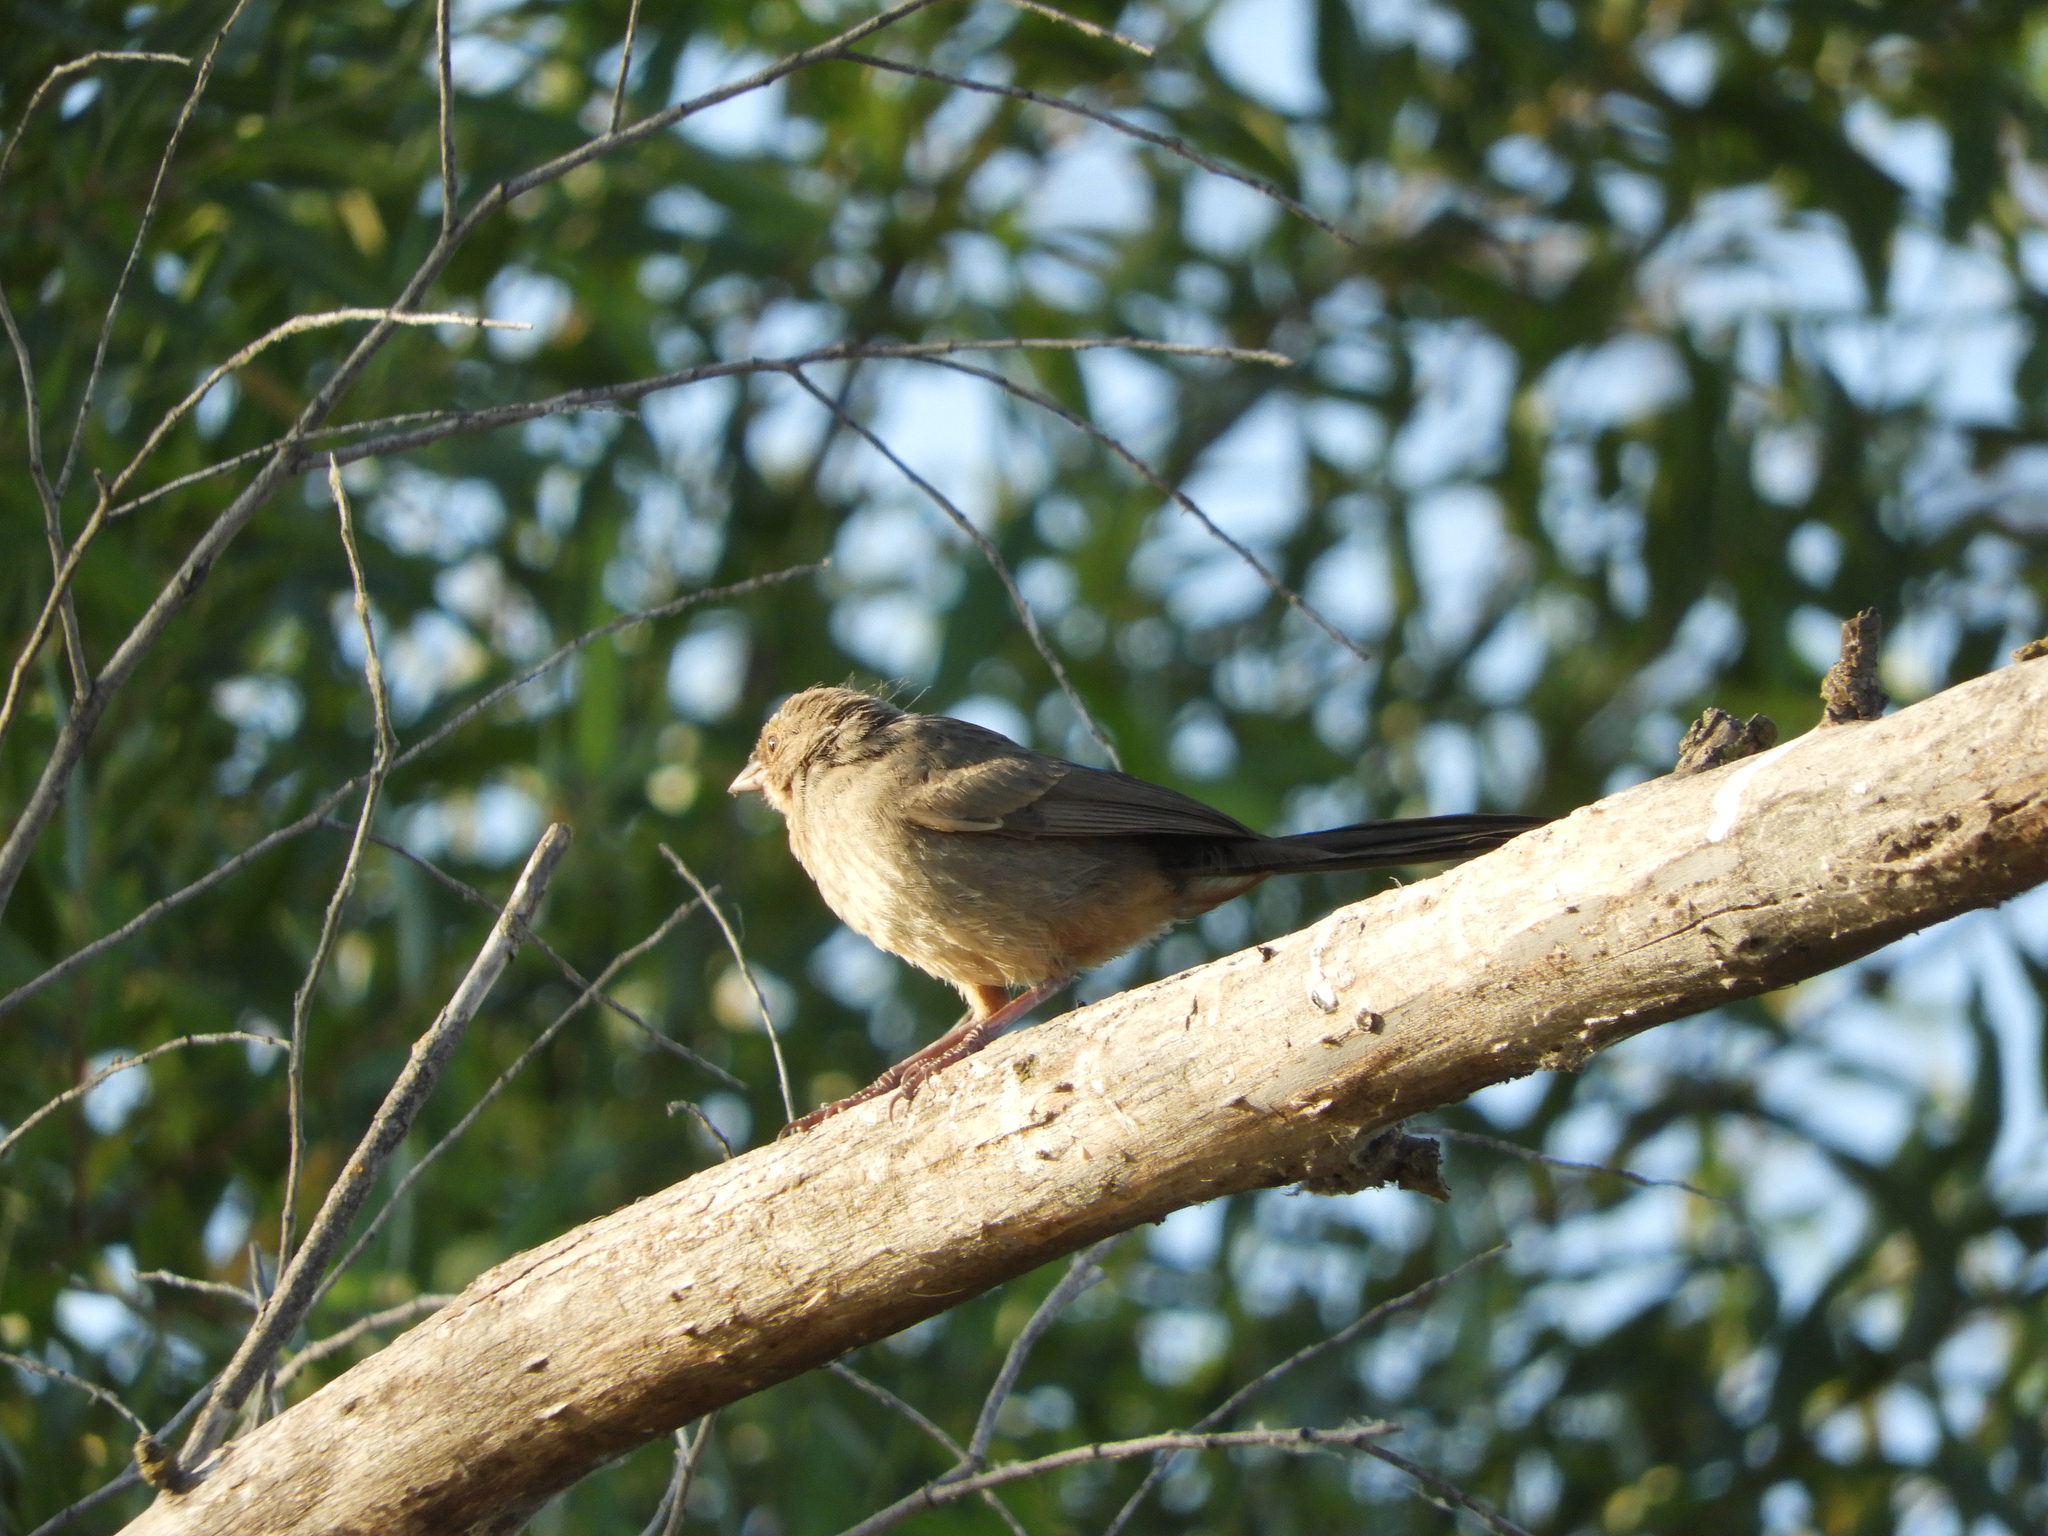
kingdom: Animalia
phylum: Chordata
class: Aves
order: Passeriformes
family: Passerellidae
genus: Melozone
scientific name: Melozone crissalis
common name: California towhee
